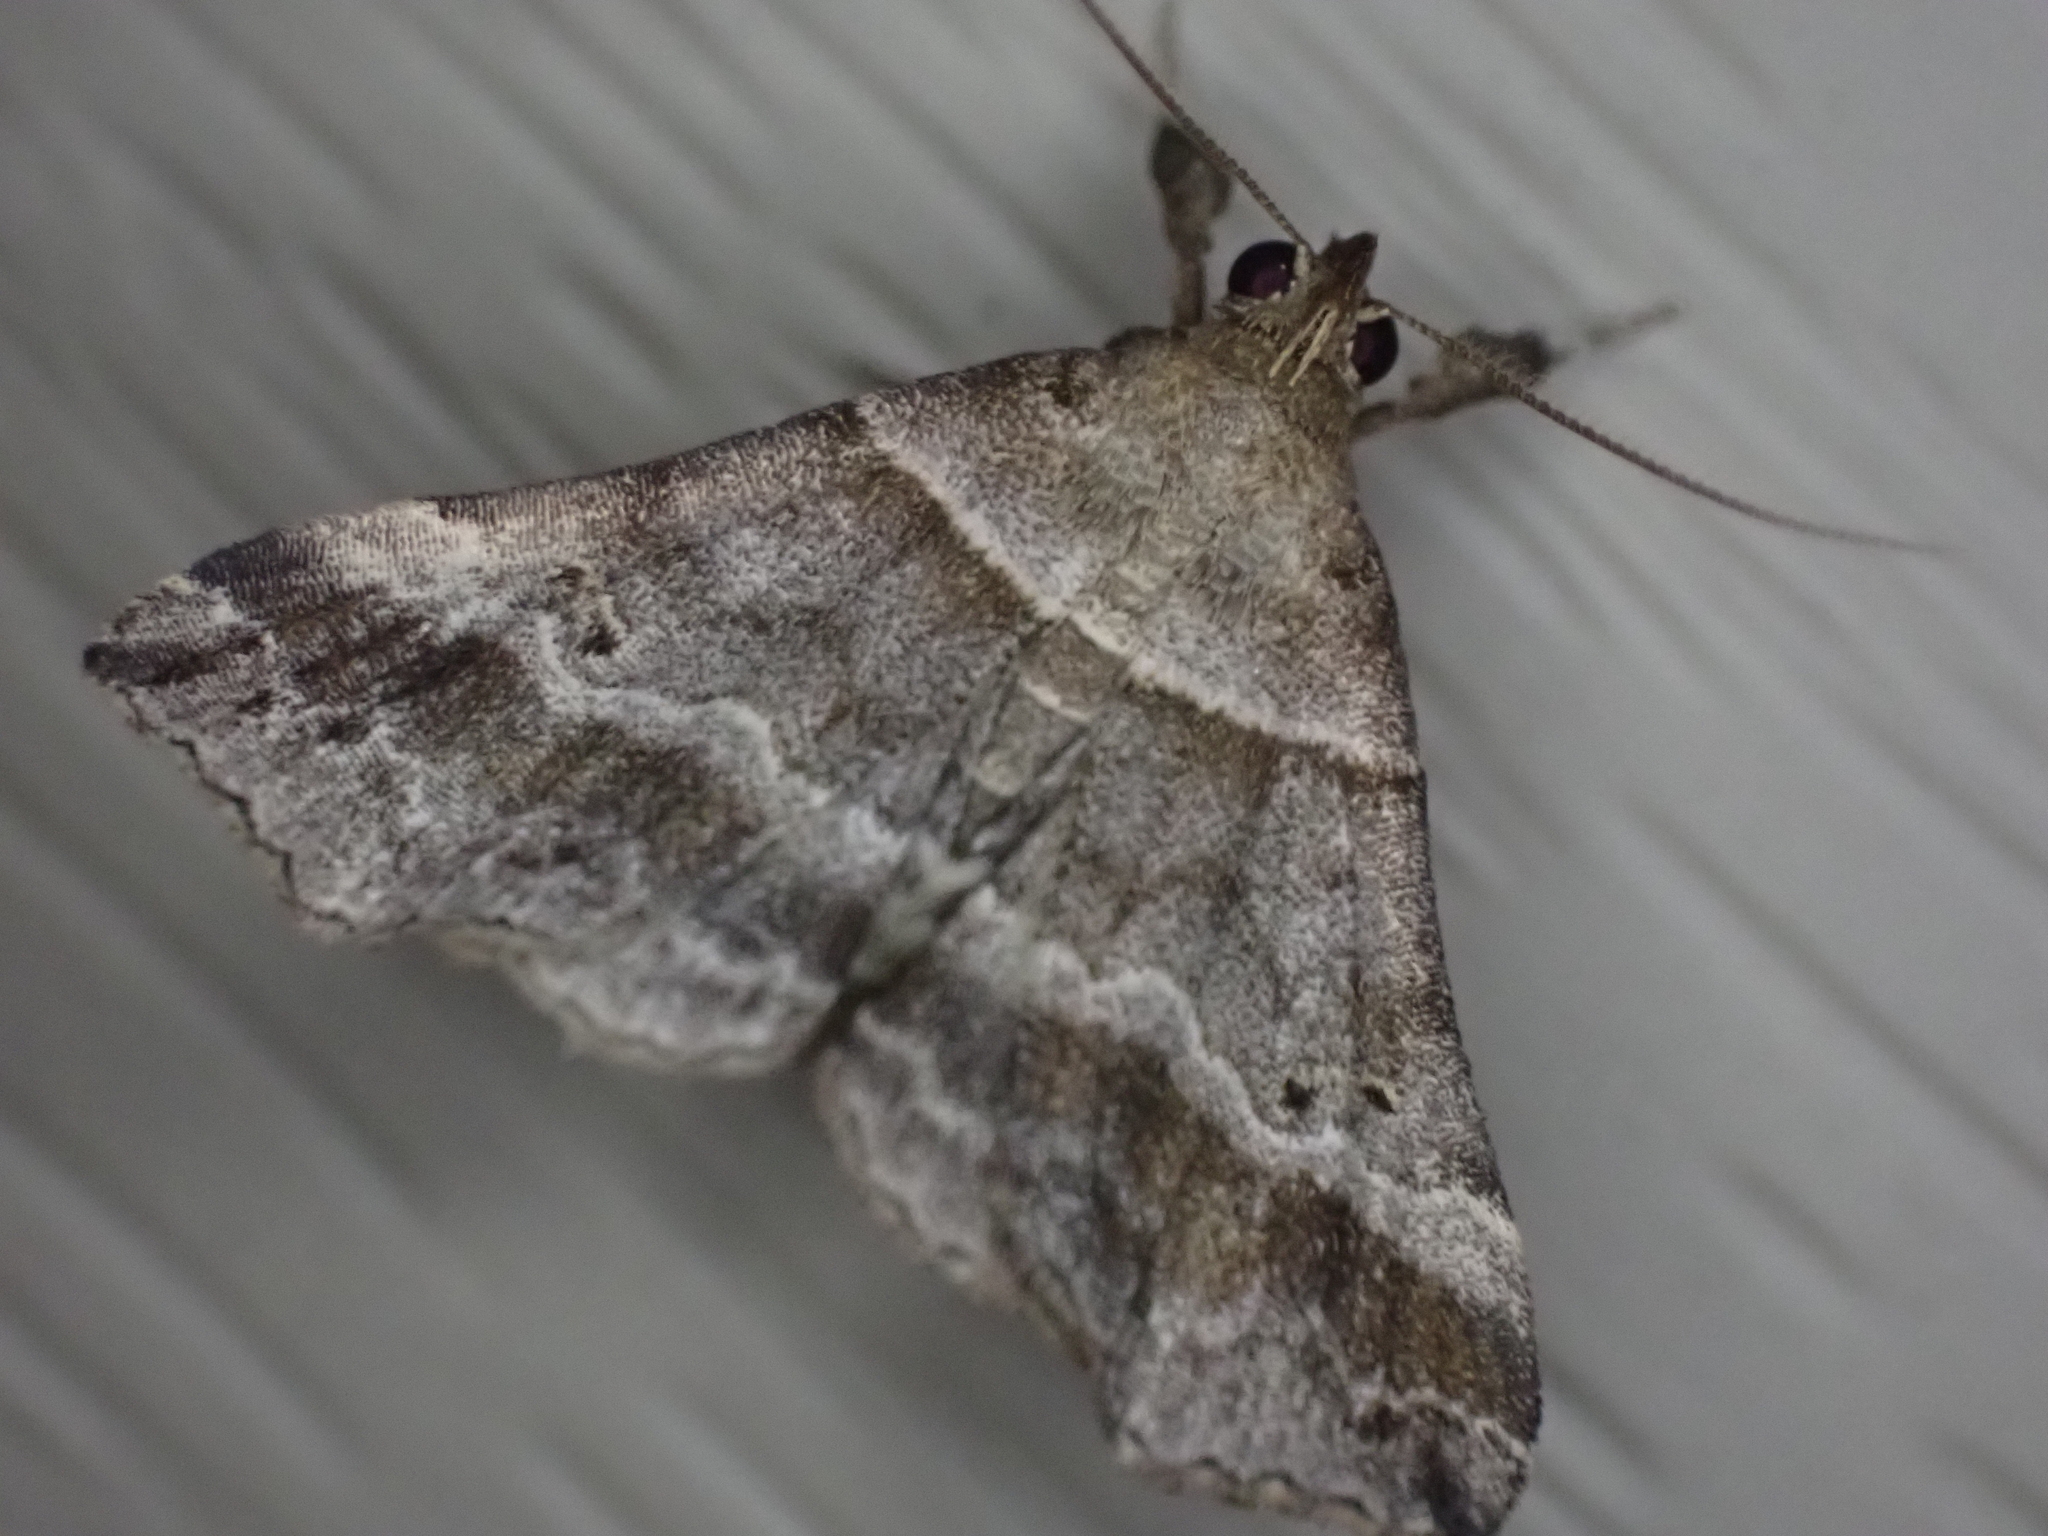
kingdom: Animalia
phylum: Arthropoda
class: Insecta
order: Lepidoptera
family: Erebidae
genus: Phaeolita
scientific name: Phaeolita pyramusalis
